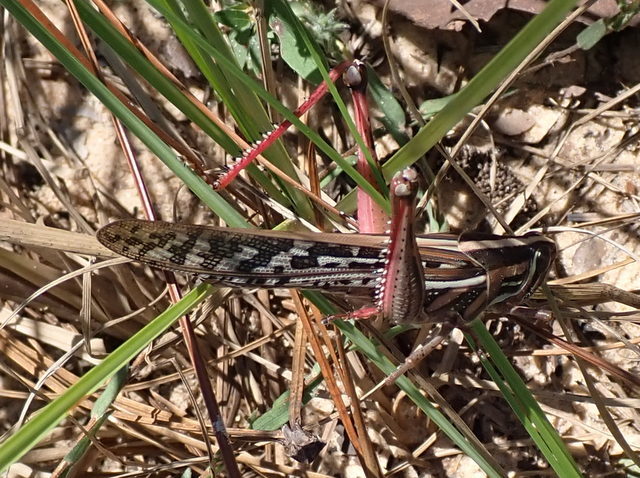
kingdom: Animalia
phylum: Arthropoda
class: Insecta
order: Orthoptera
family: Acrididae
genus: Schistocerca
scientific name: Schistocerca americana
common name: American bird locust
